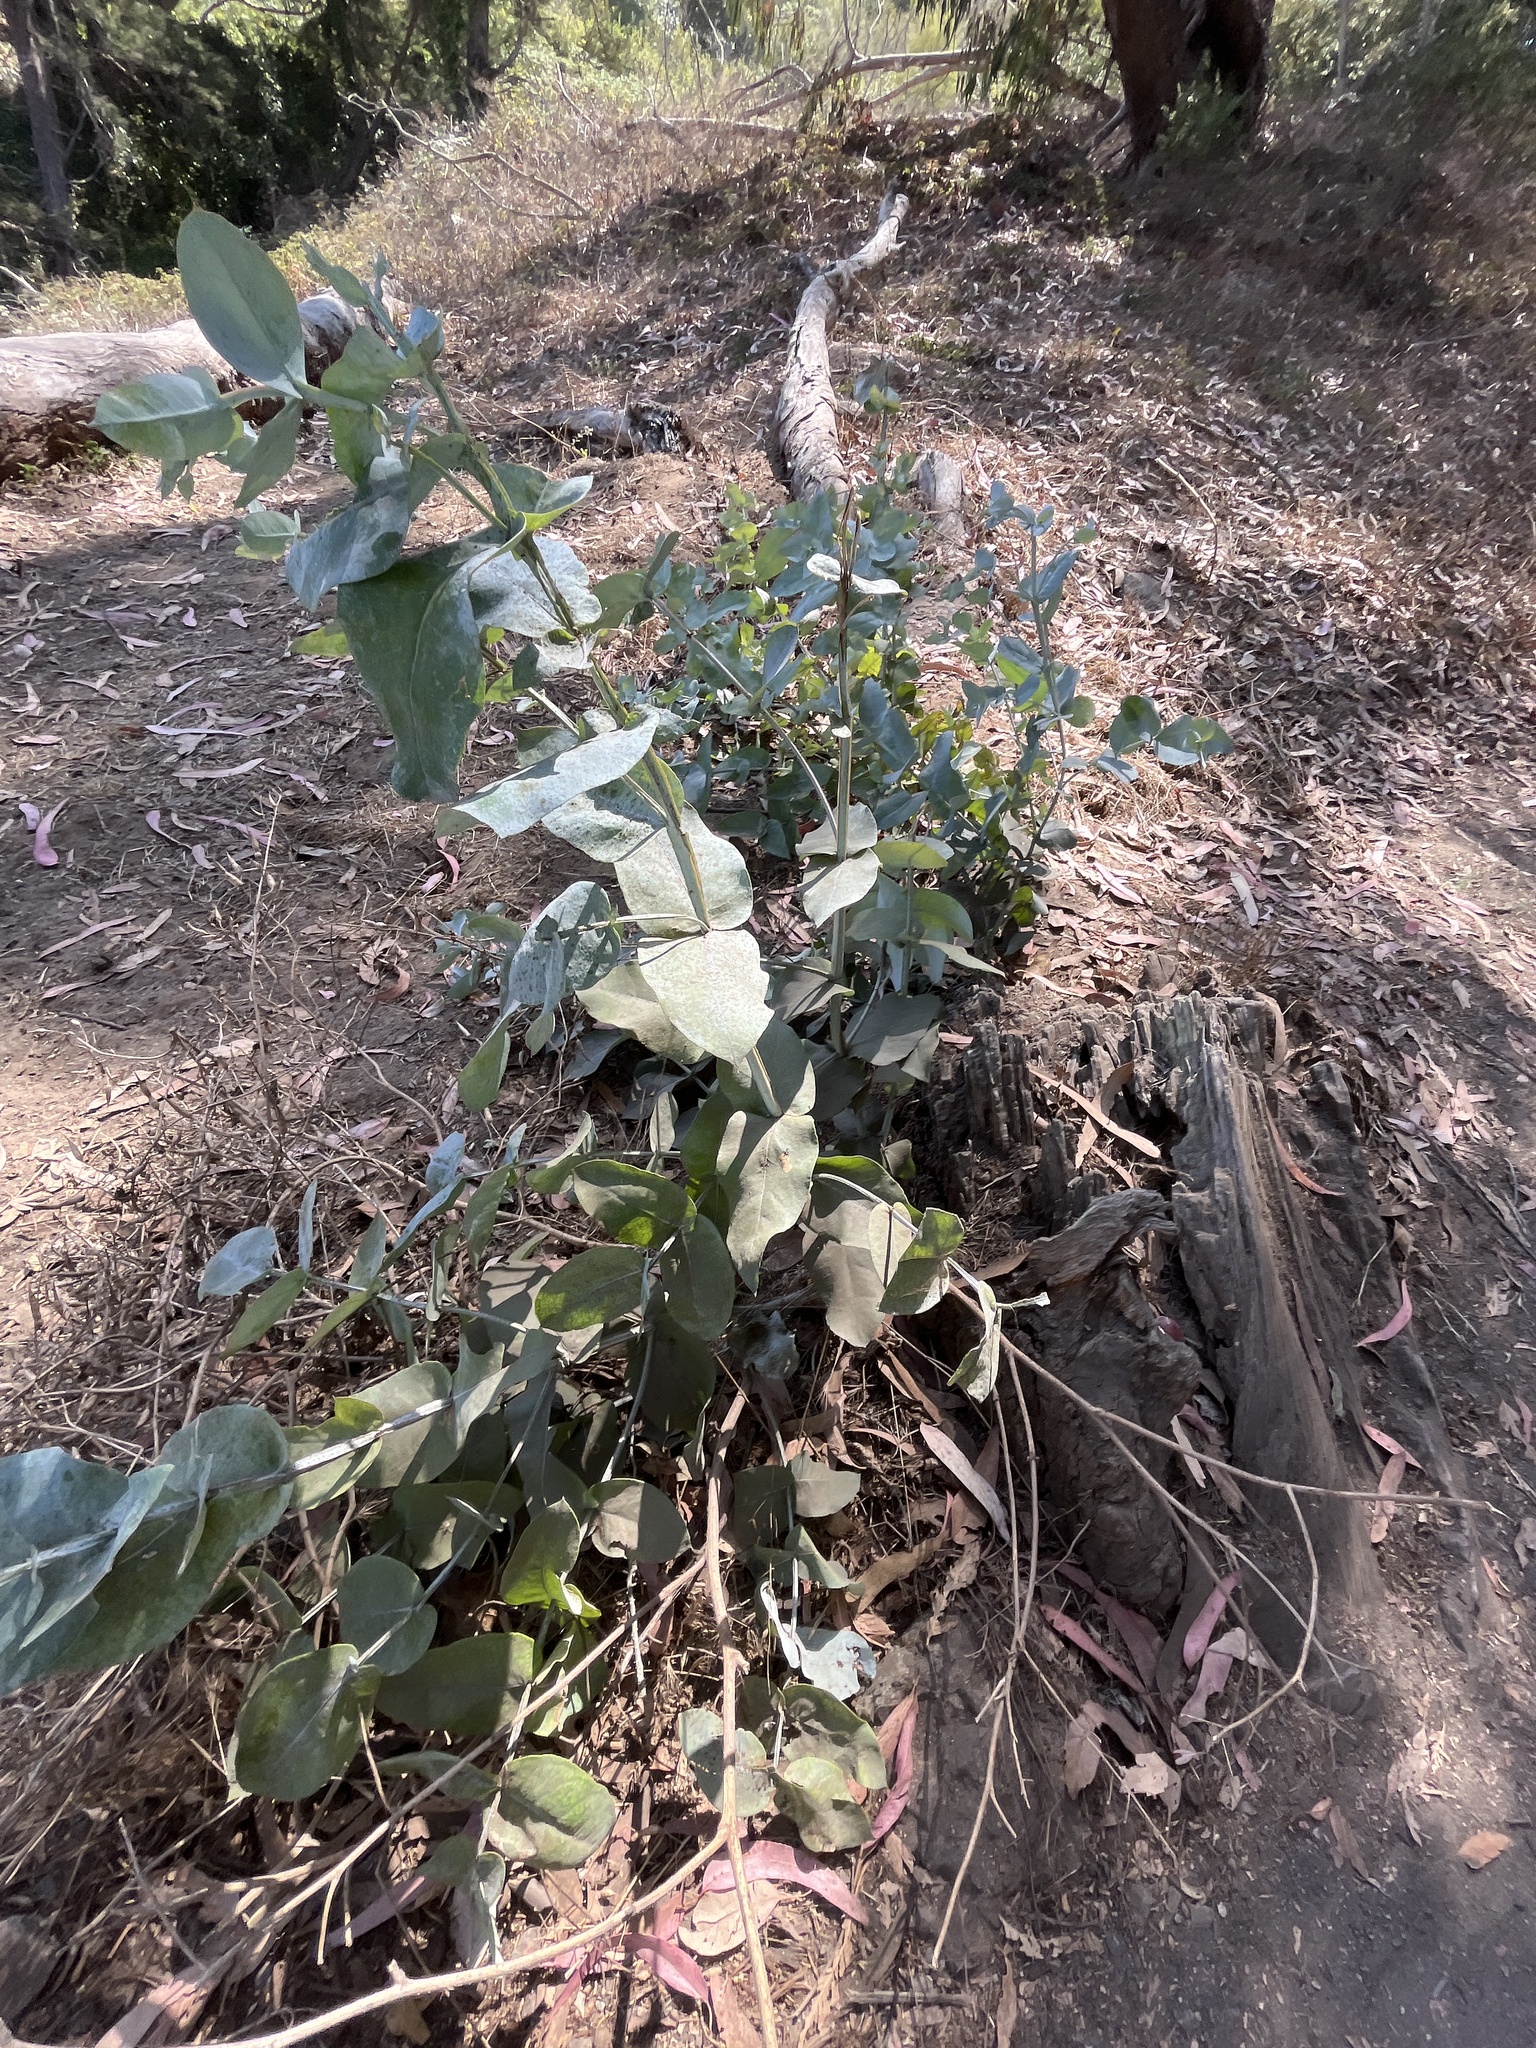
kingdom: Plantae
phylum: Tracheophyta
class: Magnoliopsida
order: Myrtales
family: Myrtaceae
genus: Eucalyptus
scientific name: Eucalyptus globulus
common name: Southern blue-gum
